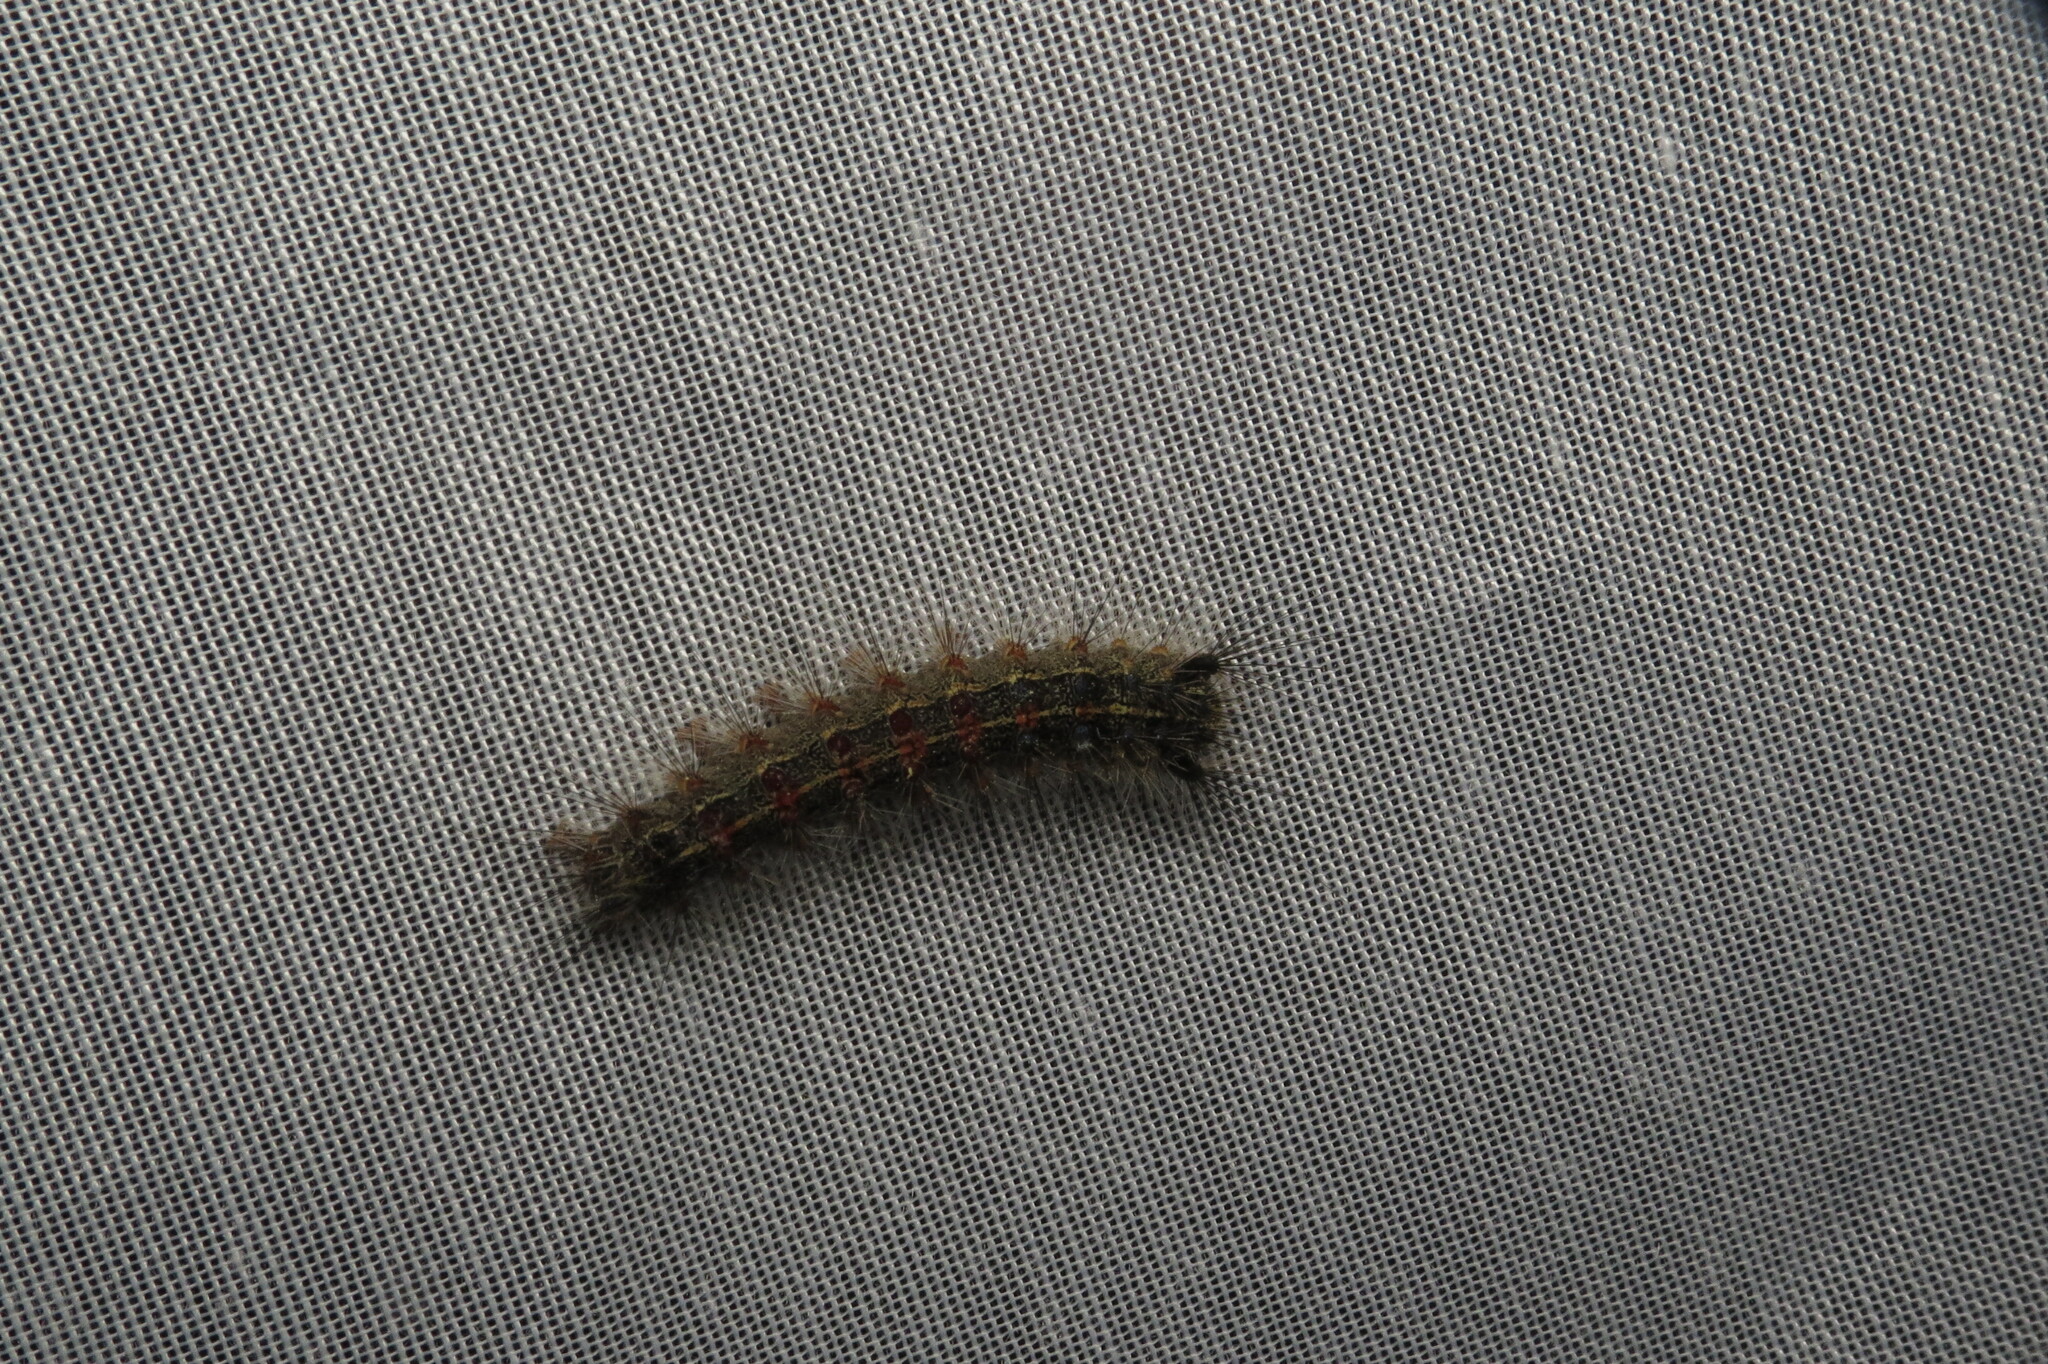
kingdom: Animalia
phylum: Arthropoda
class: Insecta
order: Lepidoptera
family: Erebidae
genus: Lymantria
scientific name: Lymantria dispar
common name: Gypsy moth
